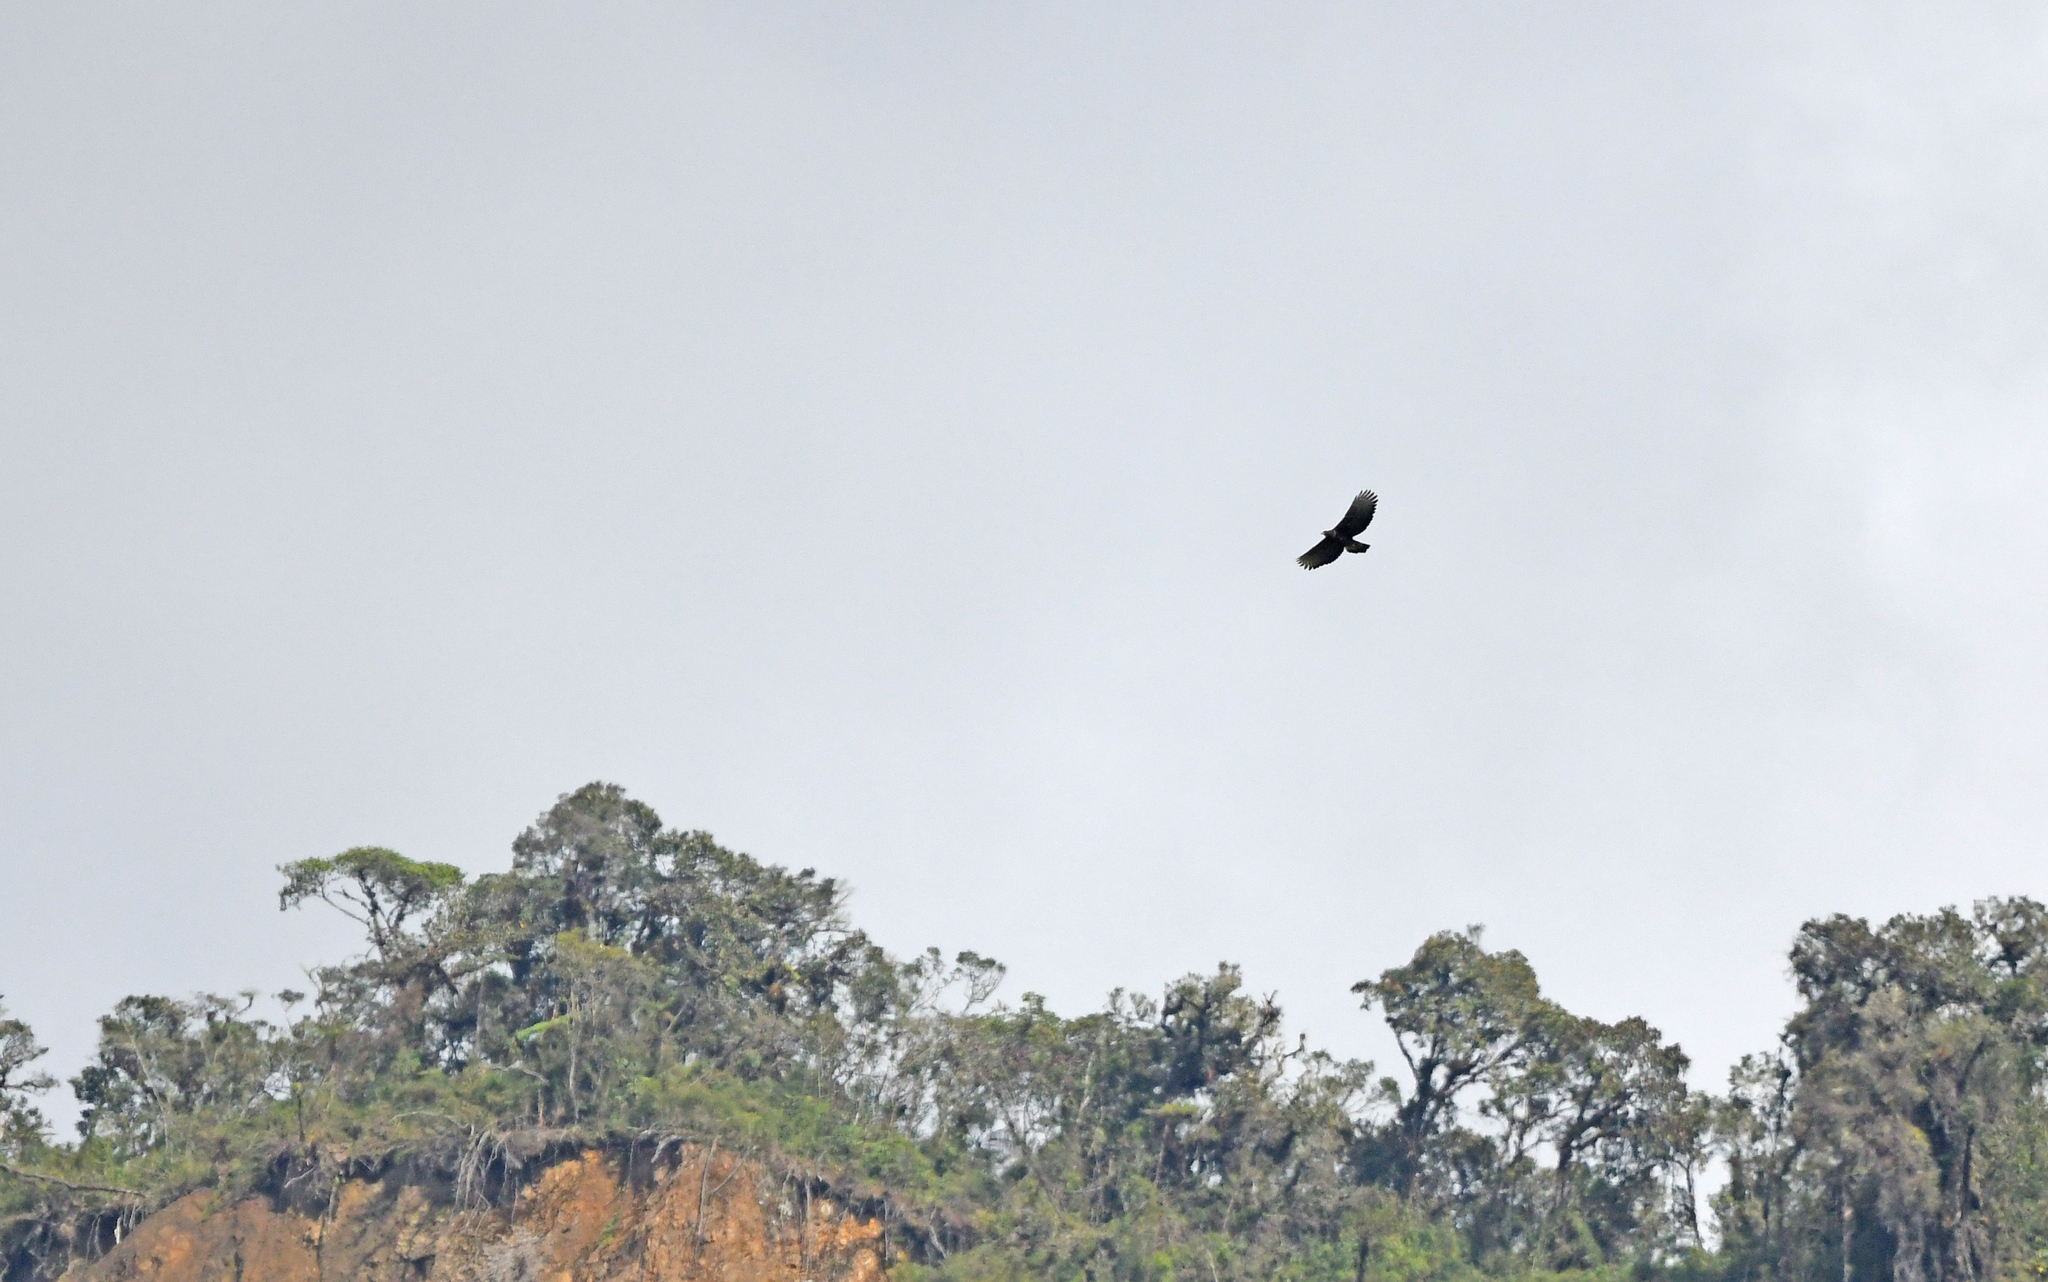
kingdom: Animalia
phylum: Chordata
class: Aves
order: Accipitriformes
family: Accipitridae
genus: Spizaetus
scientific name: Spizaetus isidori
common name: Black-and-chestnut eagle
